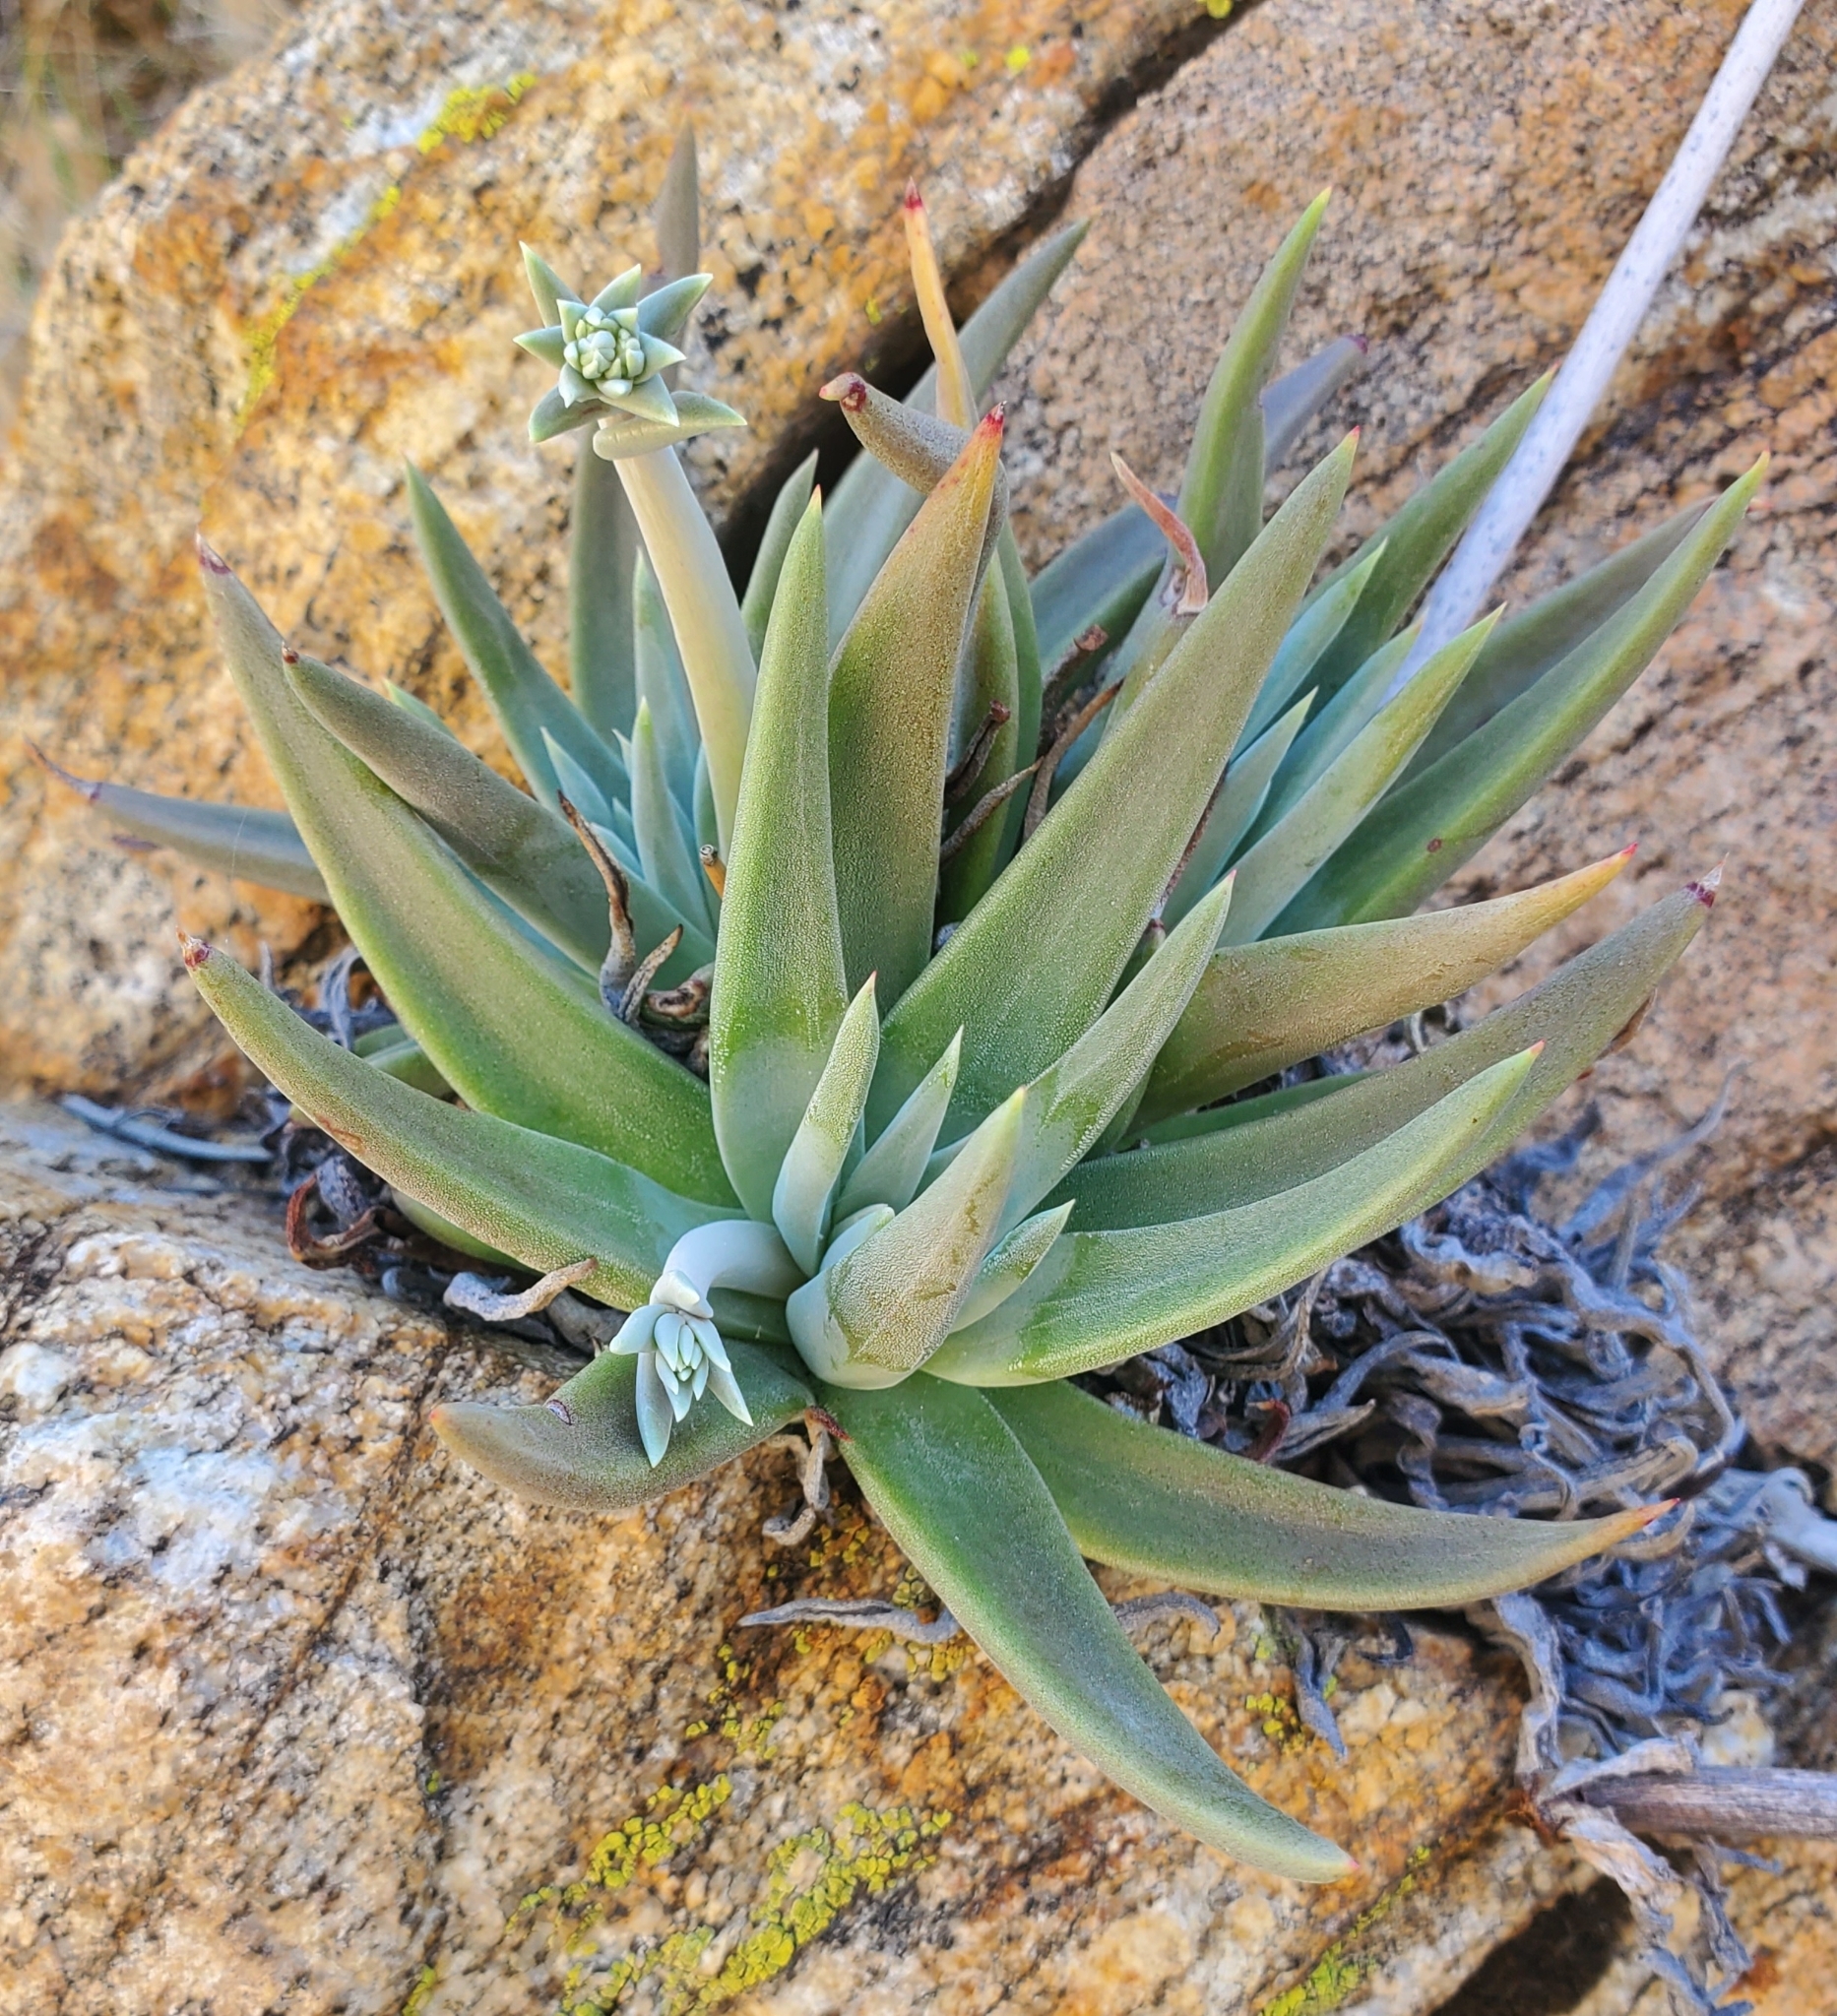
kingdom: Plantae
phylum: Tracheophyta
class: Magnoliopsida
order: Saxifragales
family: Crassulaceae
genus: Dudleya
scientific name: Dudleya saxosa
